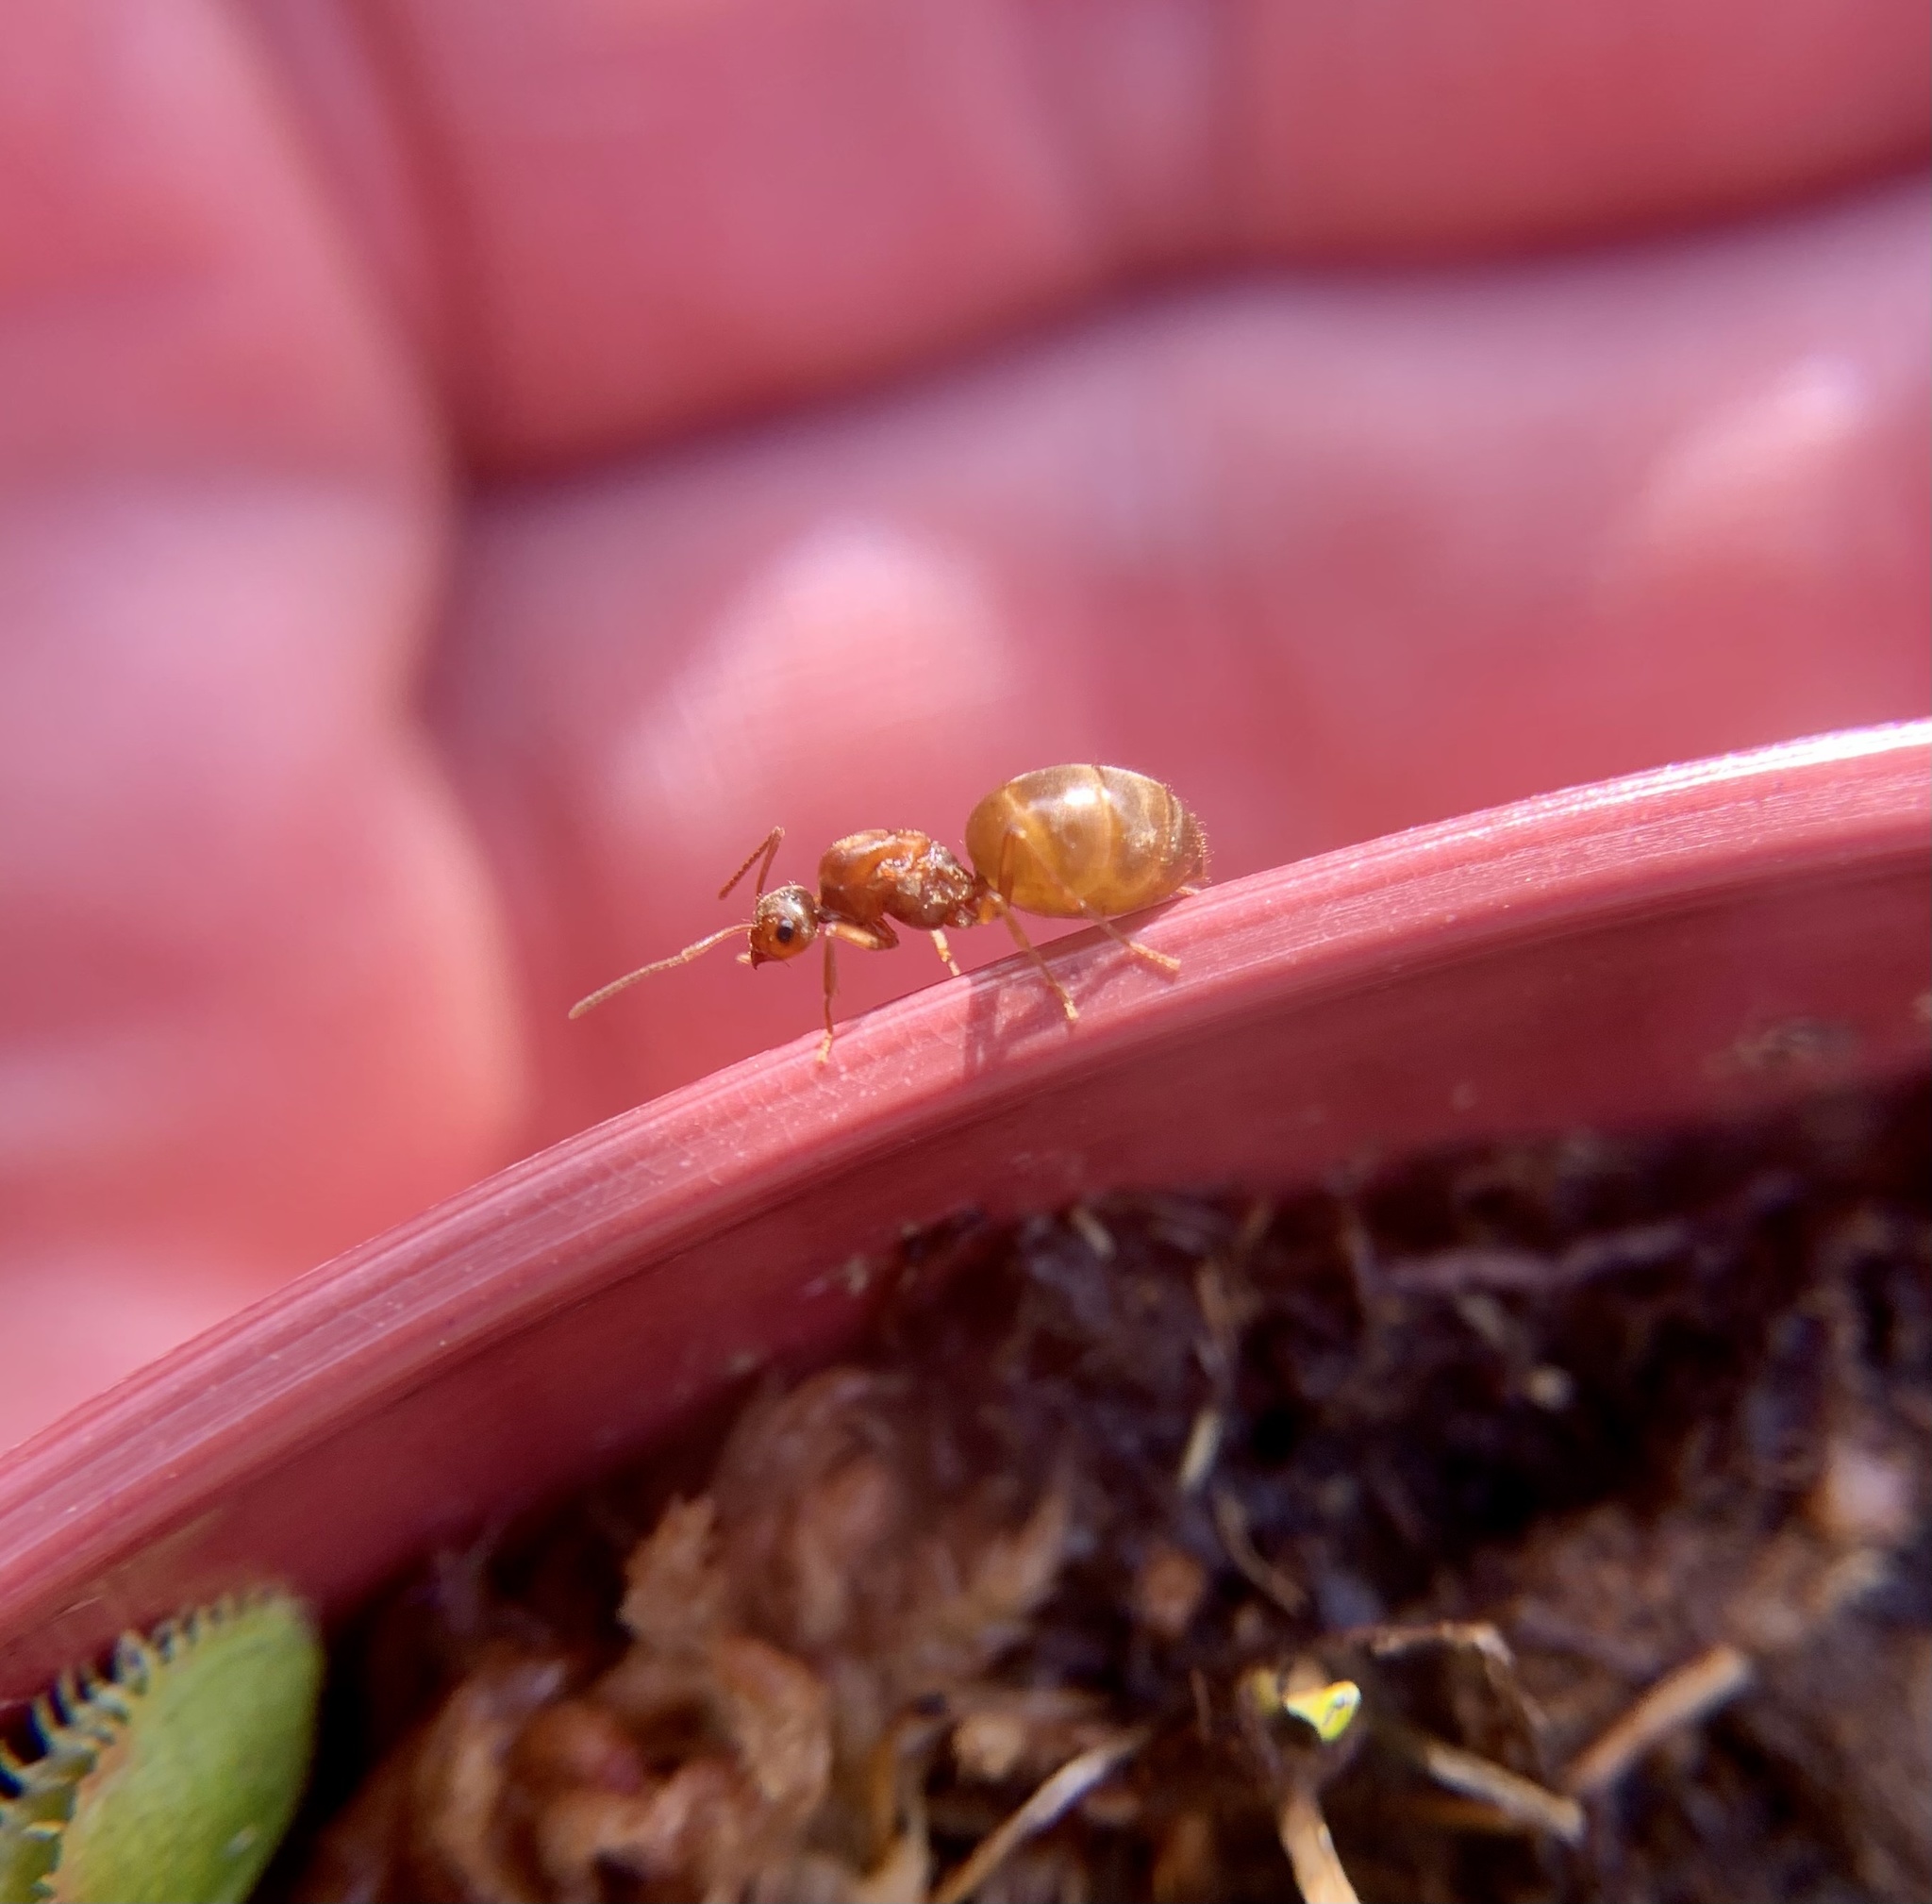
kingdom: Animalia
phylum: Arthropoda
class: Insecta
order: Hymenoptera
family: Formicidae
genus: Prenolepis
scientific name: Prenolepis imparis
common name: Small honey ant
